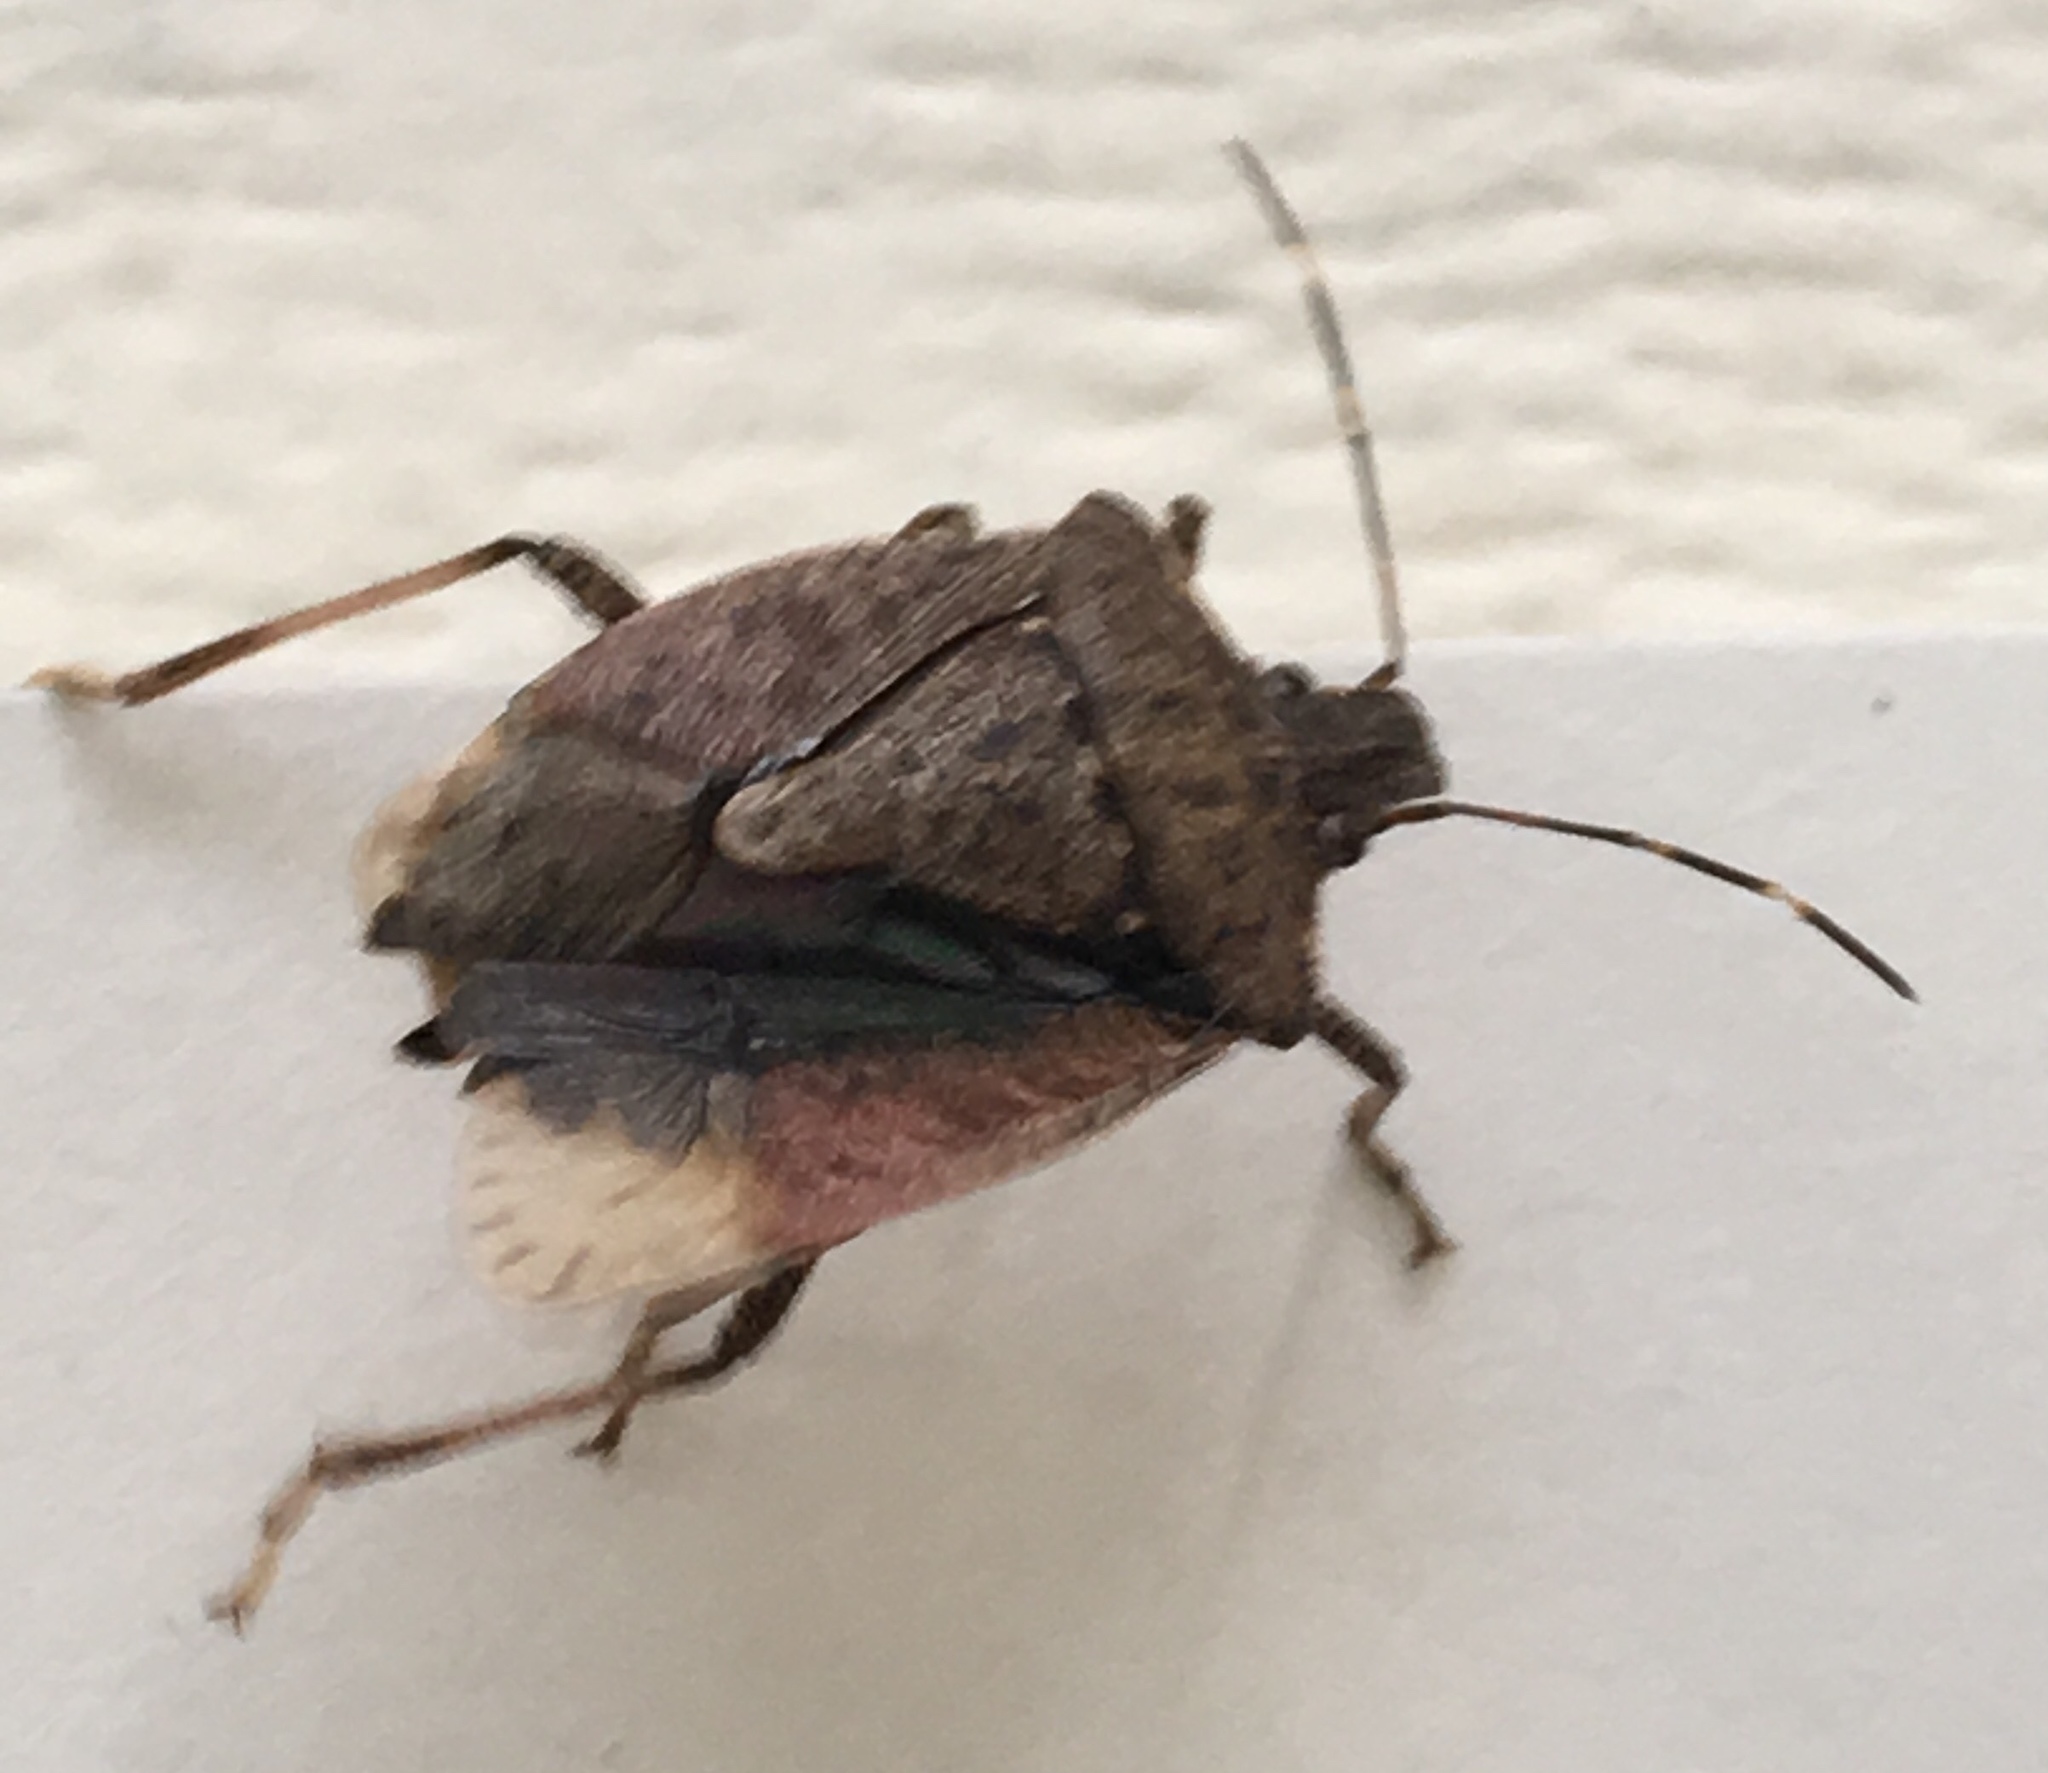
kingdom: Animalia
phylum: Arthropoda
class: Insecta
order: Hemiptera
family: Pentatomidae
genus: Halyomorpha
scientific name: Halyomorpha halys
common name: Brown marmorated stink bug
